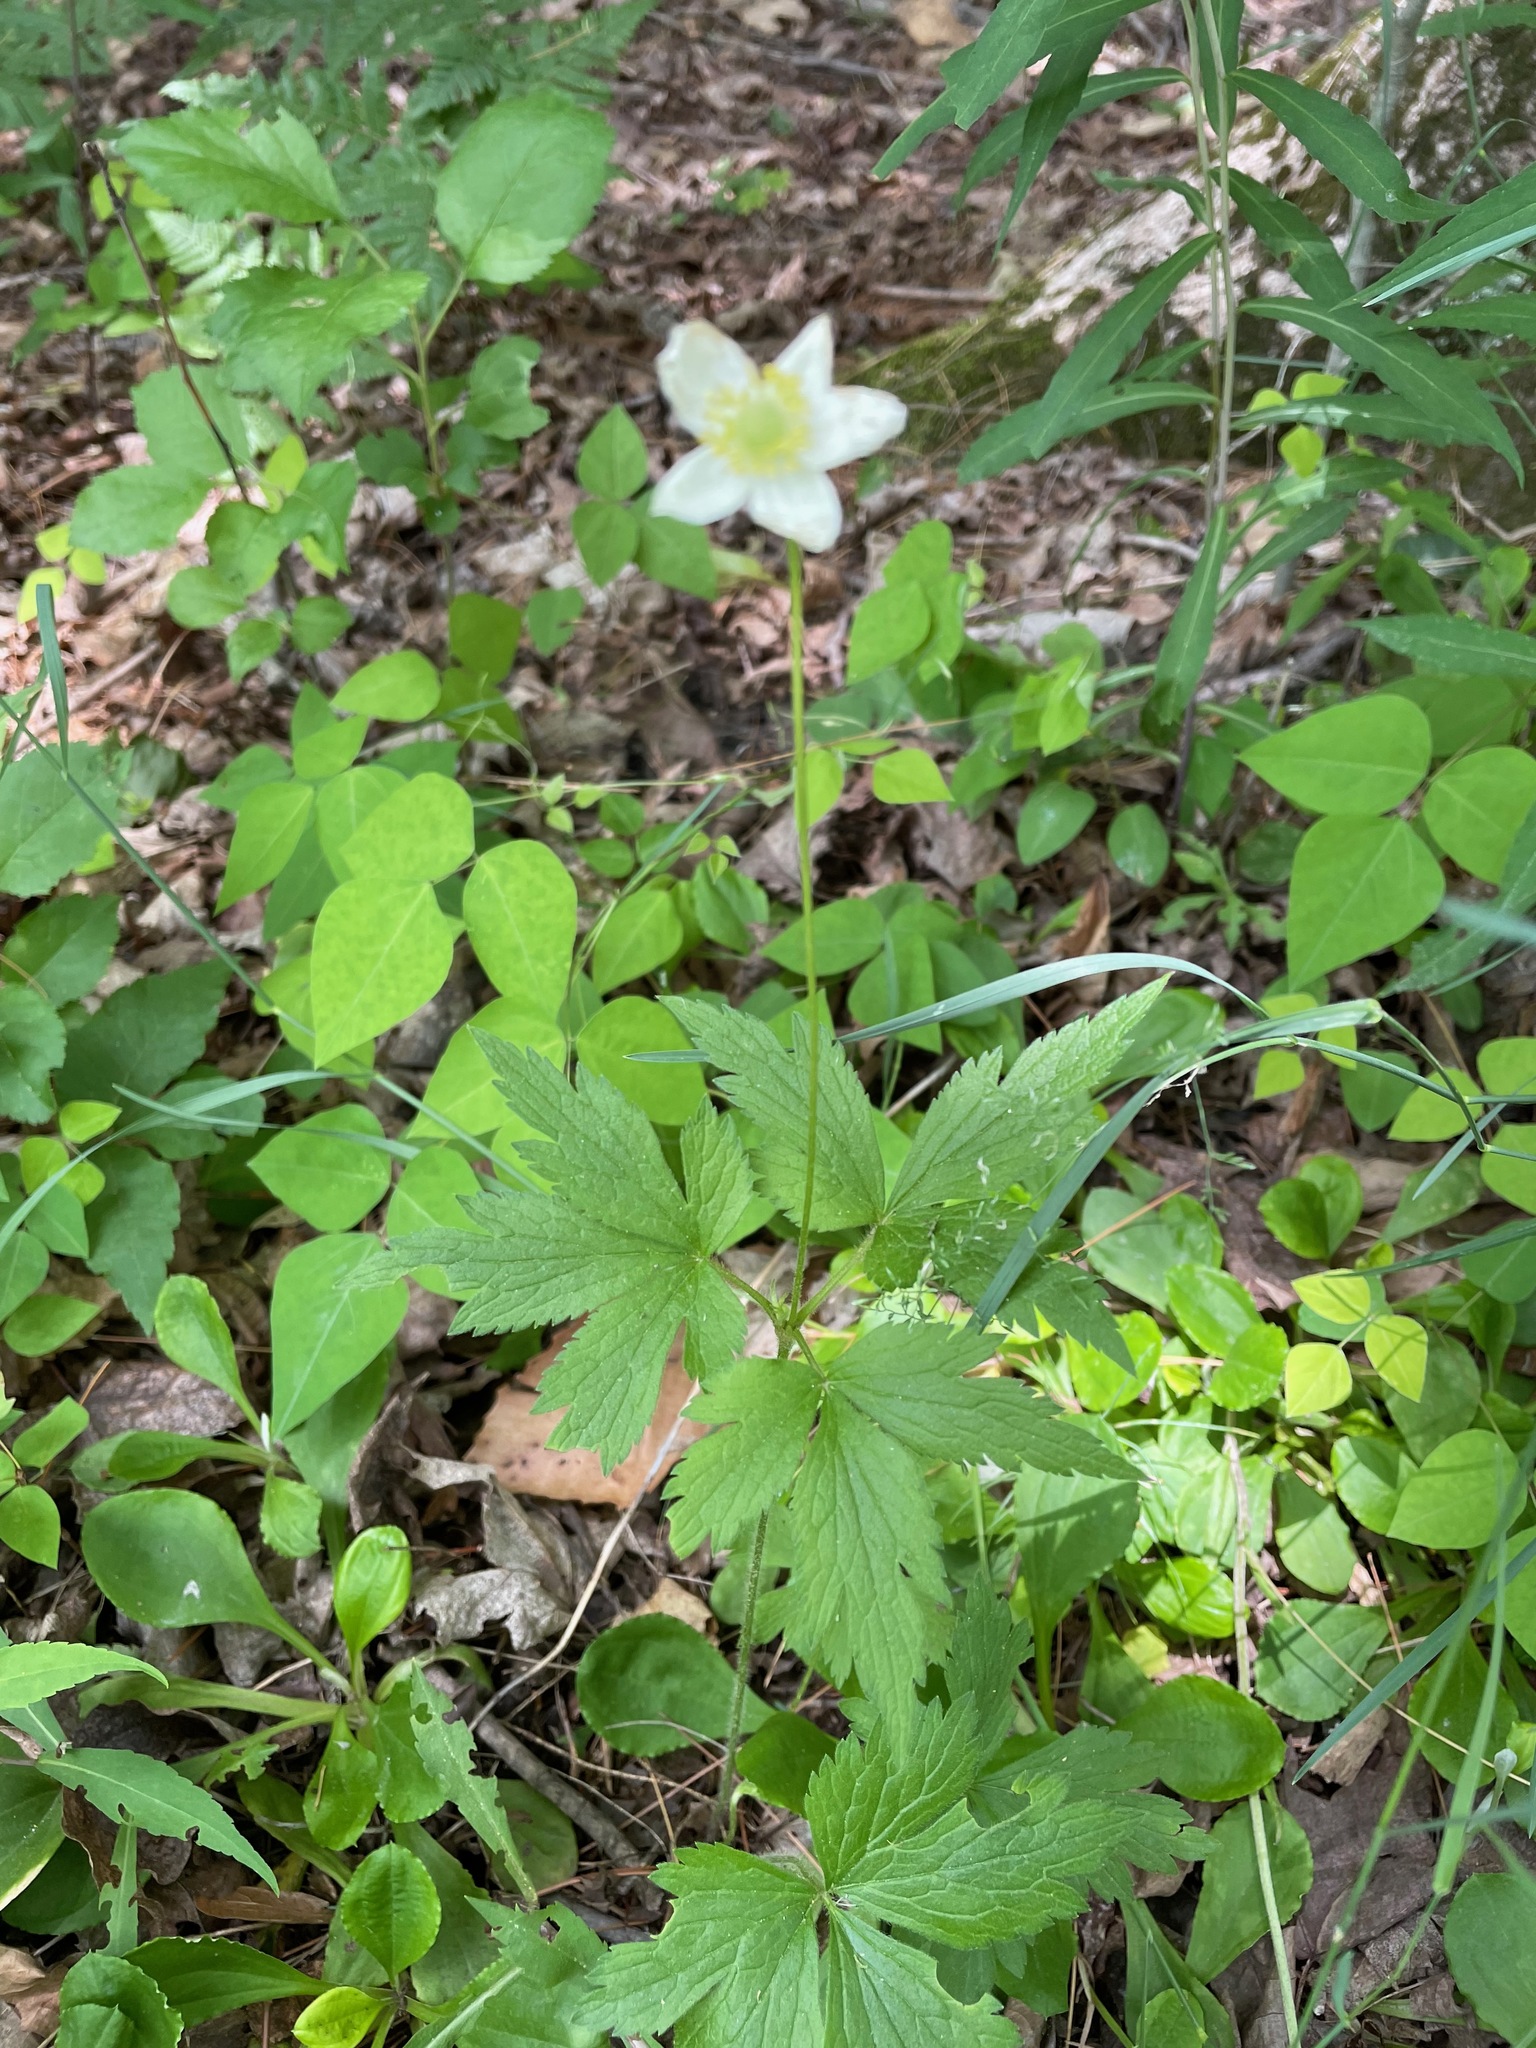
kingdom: Plantae
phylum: Tracheophyta
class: Magnoliopsida
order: Ranunculales
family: Ranunculaceae
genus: Anemone
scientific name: Anemone virginiana
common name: Tall anemone
